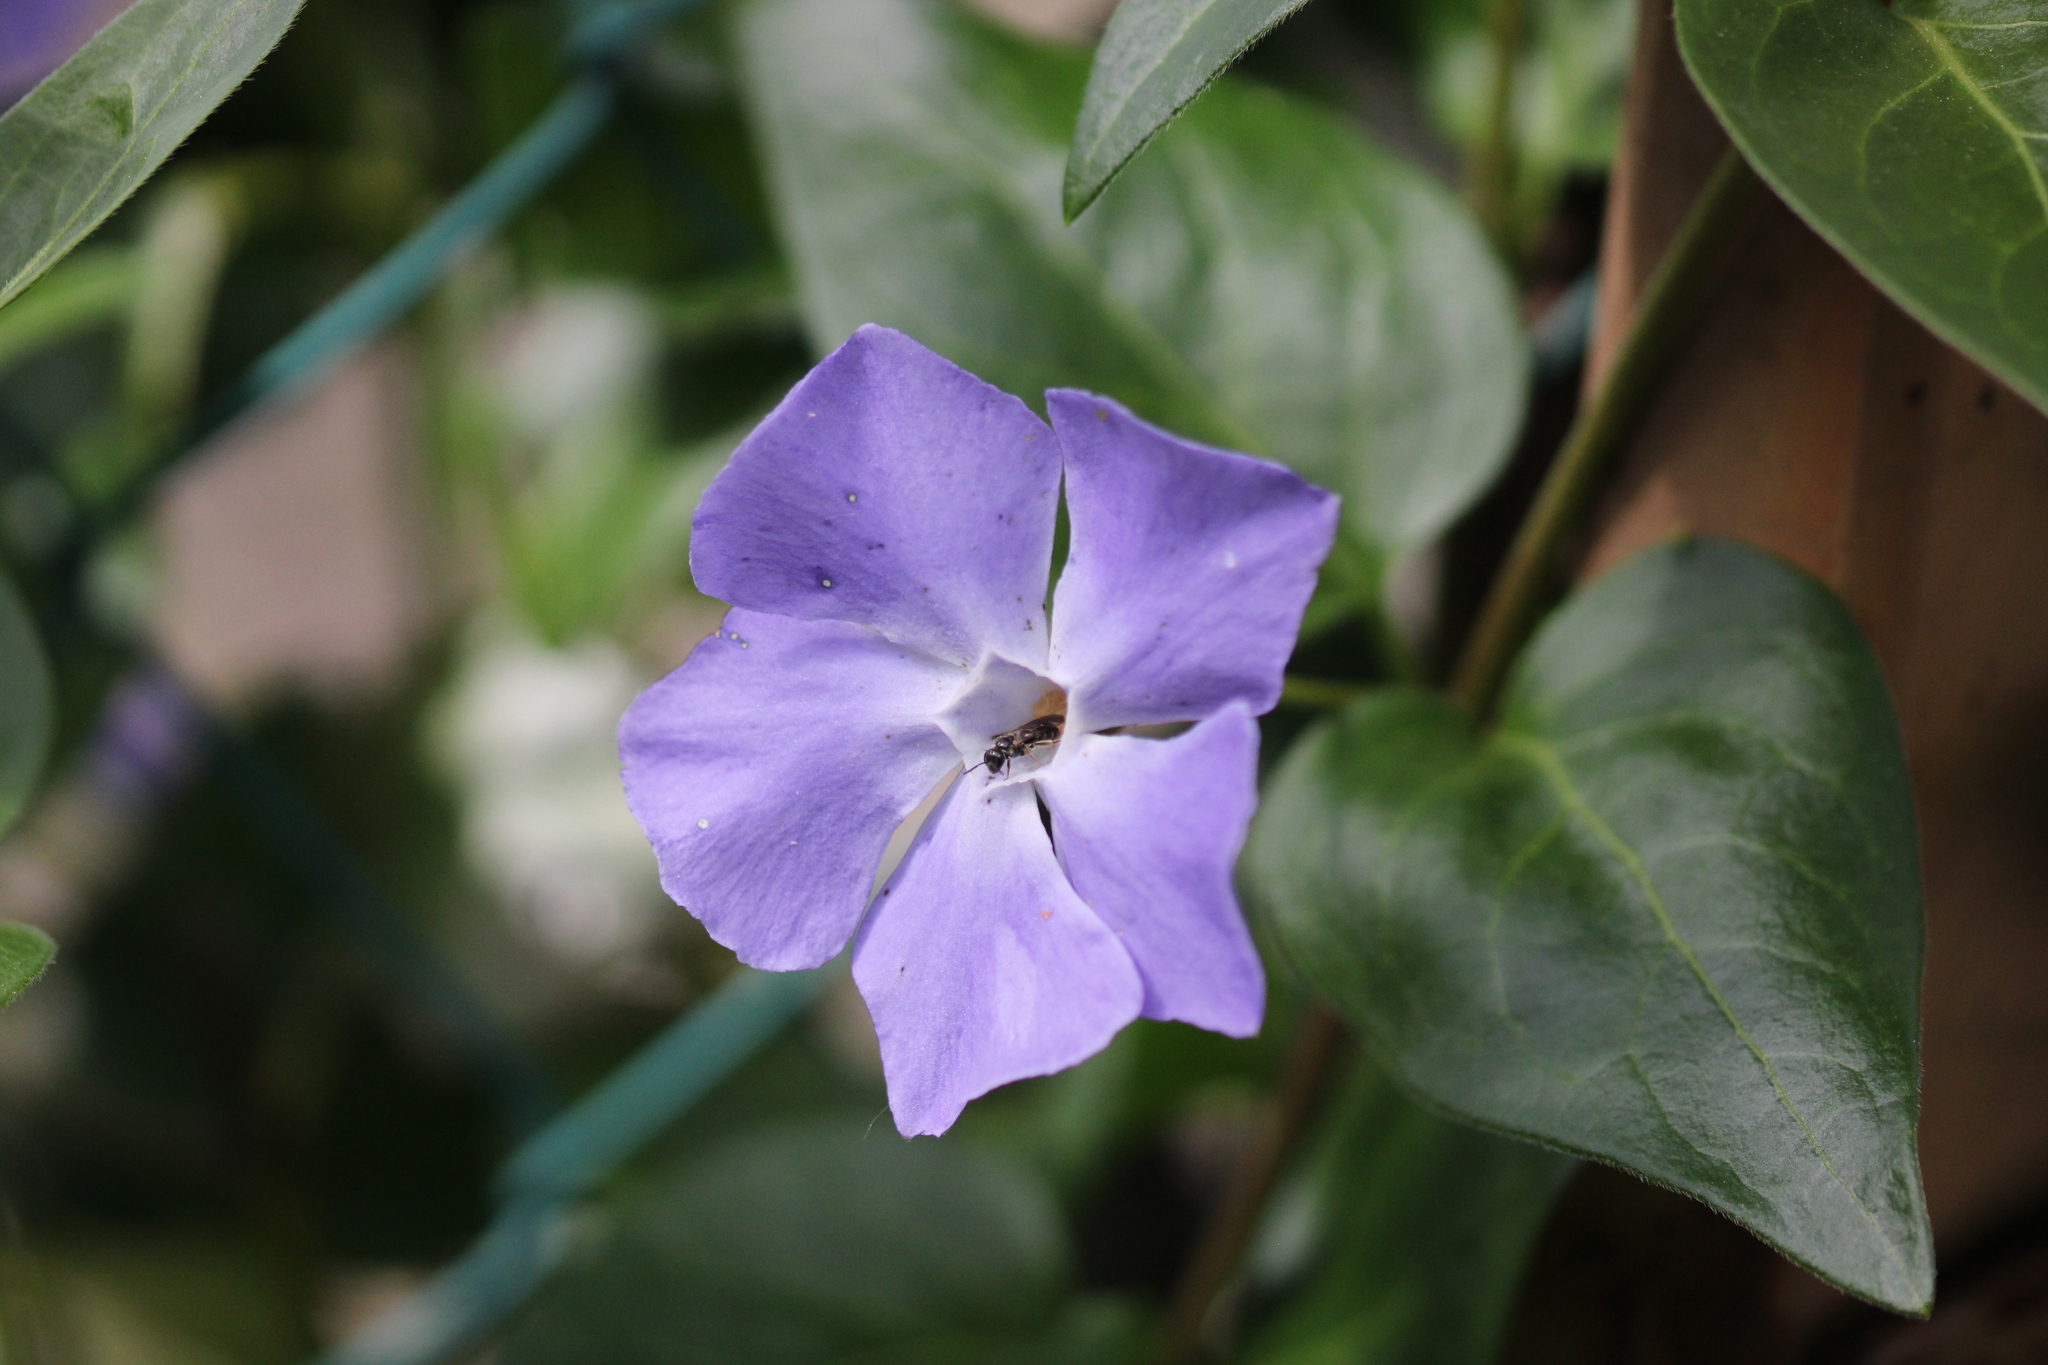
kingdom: Plantae
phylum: Tracheophyta
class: Magnoliopsida
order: Gentianales
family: Apocynaceae
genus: Vinca
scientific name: Vinca major
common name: Greater periwinkle
